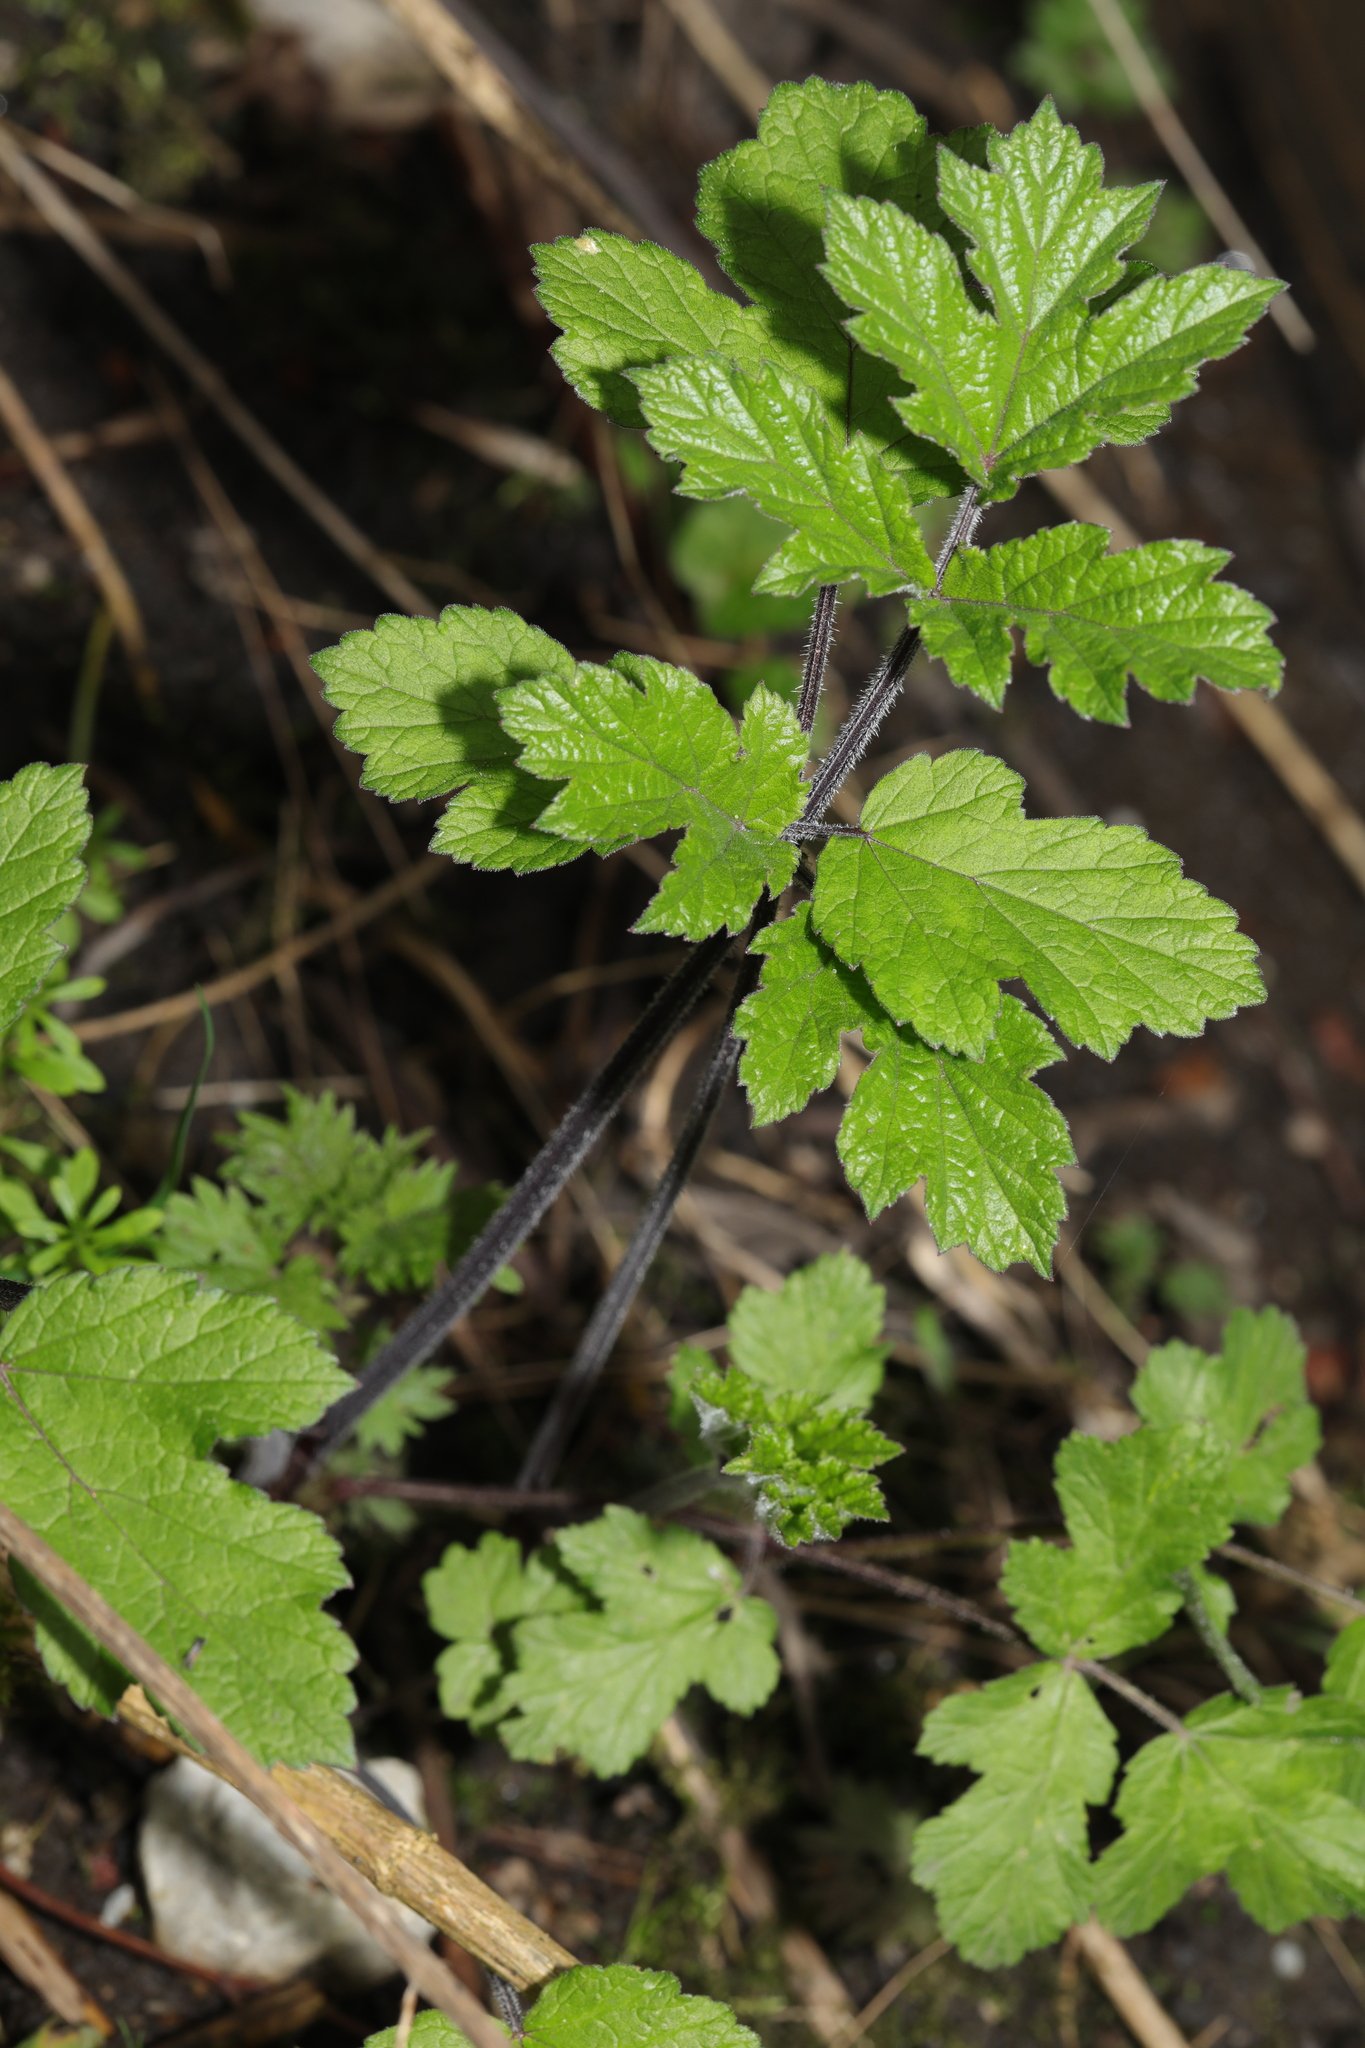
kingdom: Plantae
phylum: Tracheophyta
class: Magnoliopsida
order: Apiales
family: Apiaceae
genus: Heracleum
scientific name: Heracleum sphondylium
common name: Hogweed
